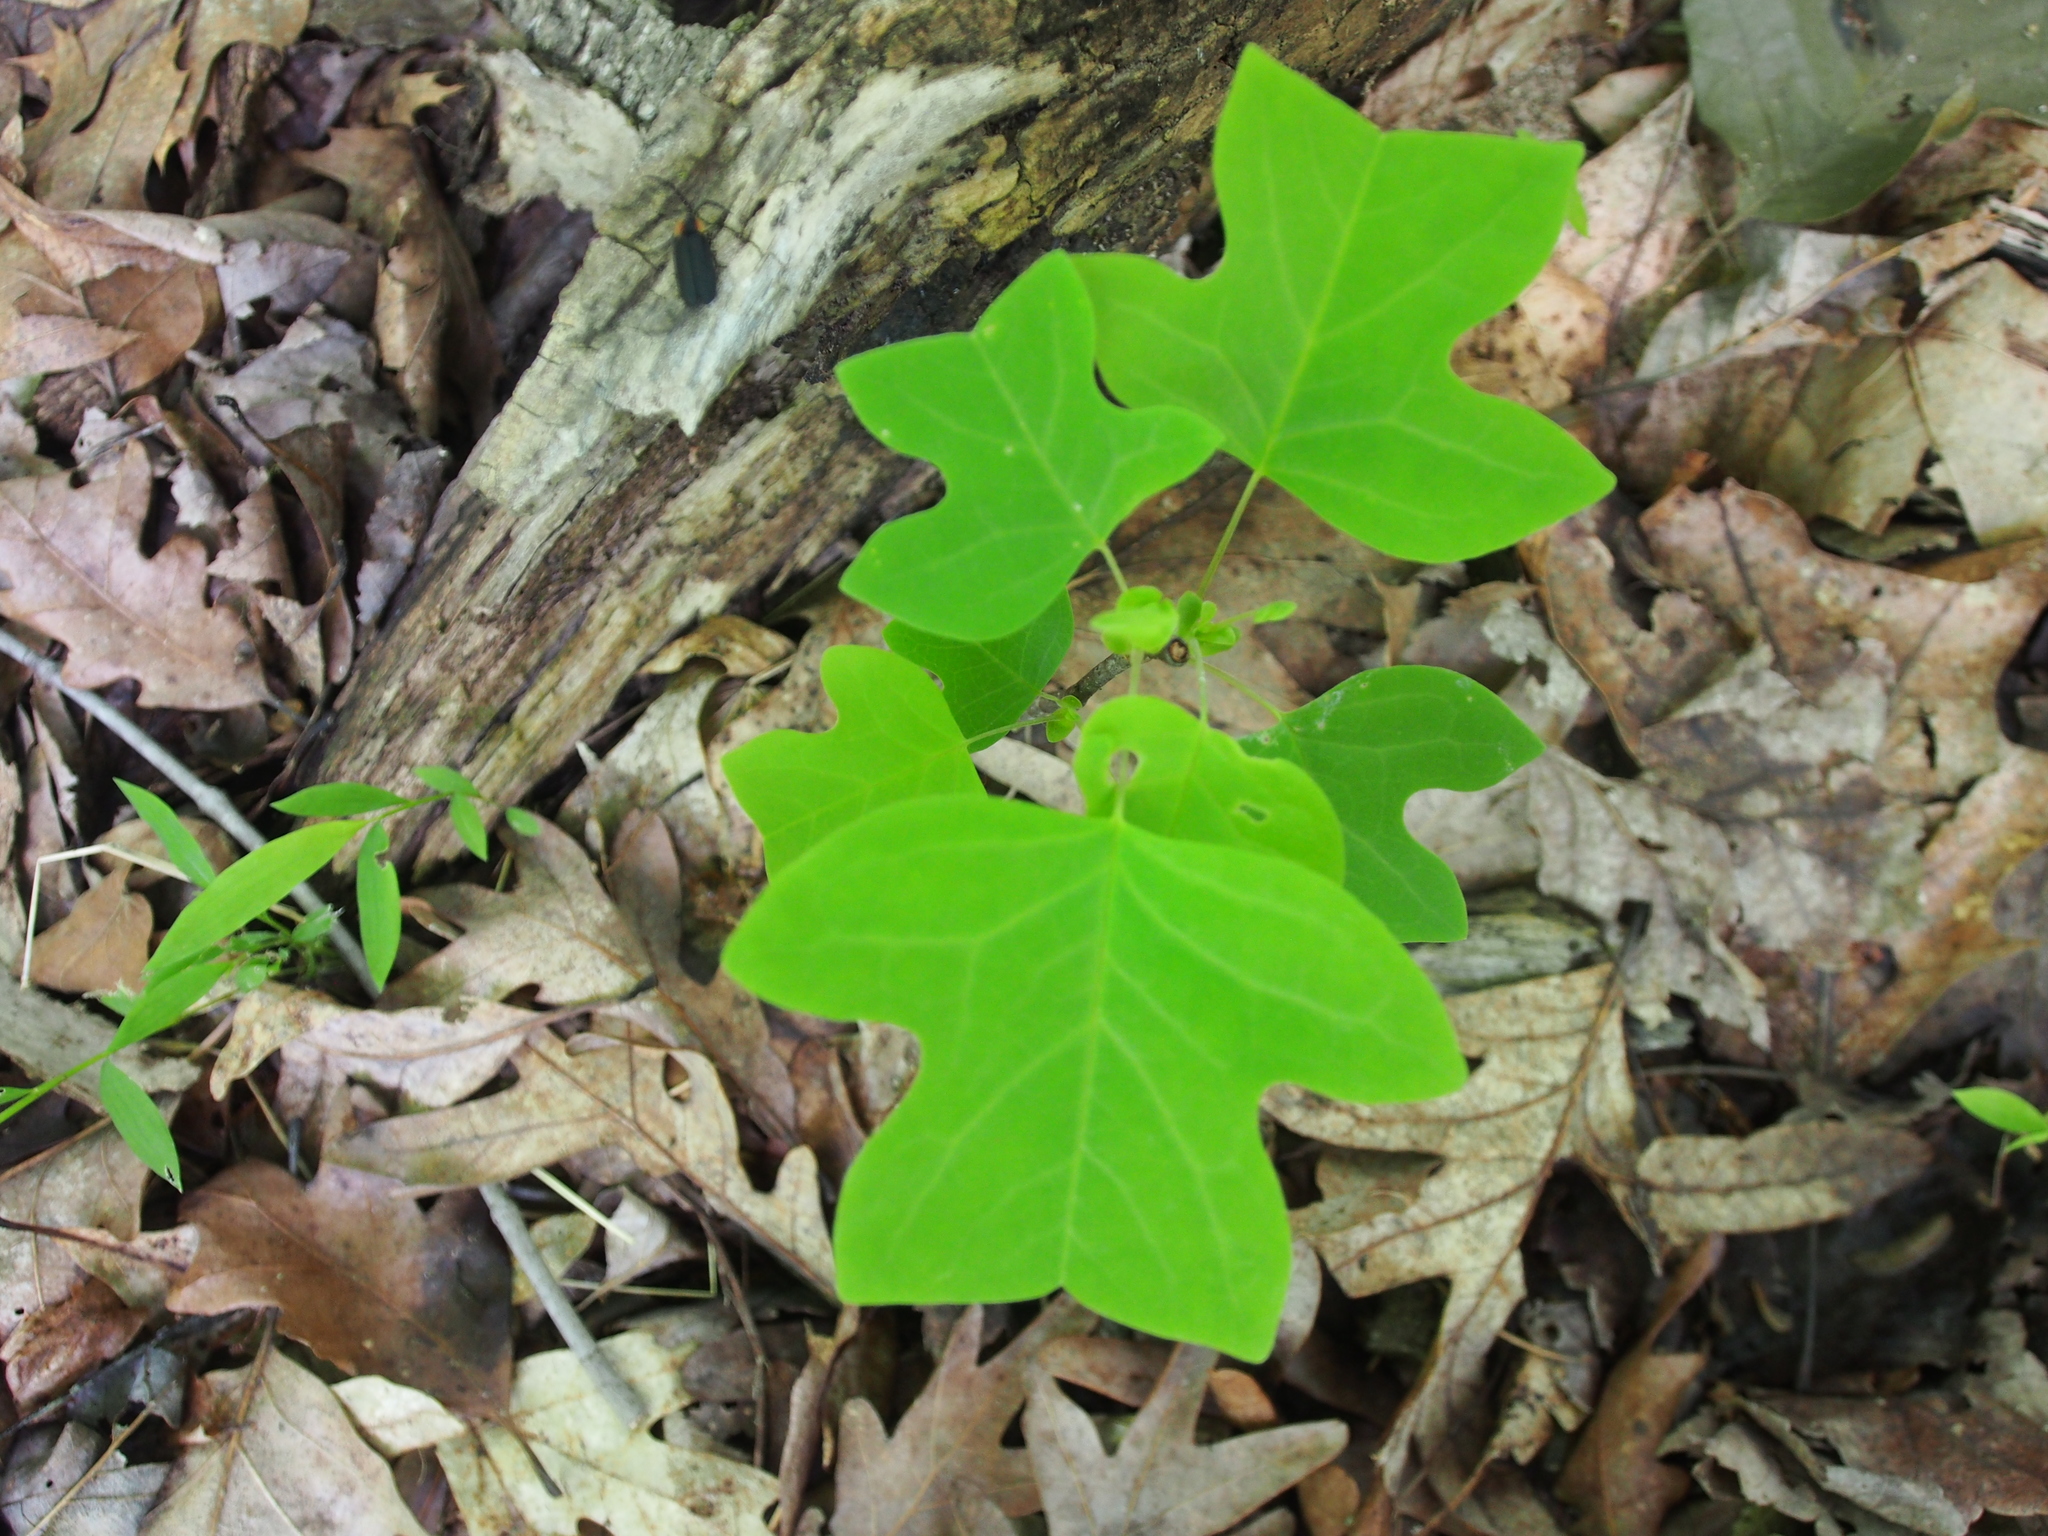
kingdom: Plantae
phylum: Tracheophyta
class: Magnoliopsida
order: Magnoliales
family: Magnoliaceae
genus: Liriodendron
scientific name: Liriodendron tulipifera
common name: Tulip tree
